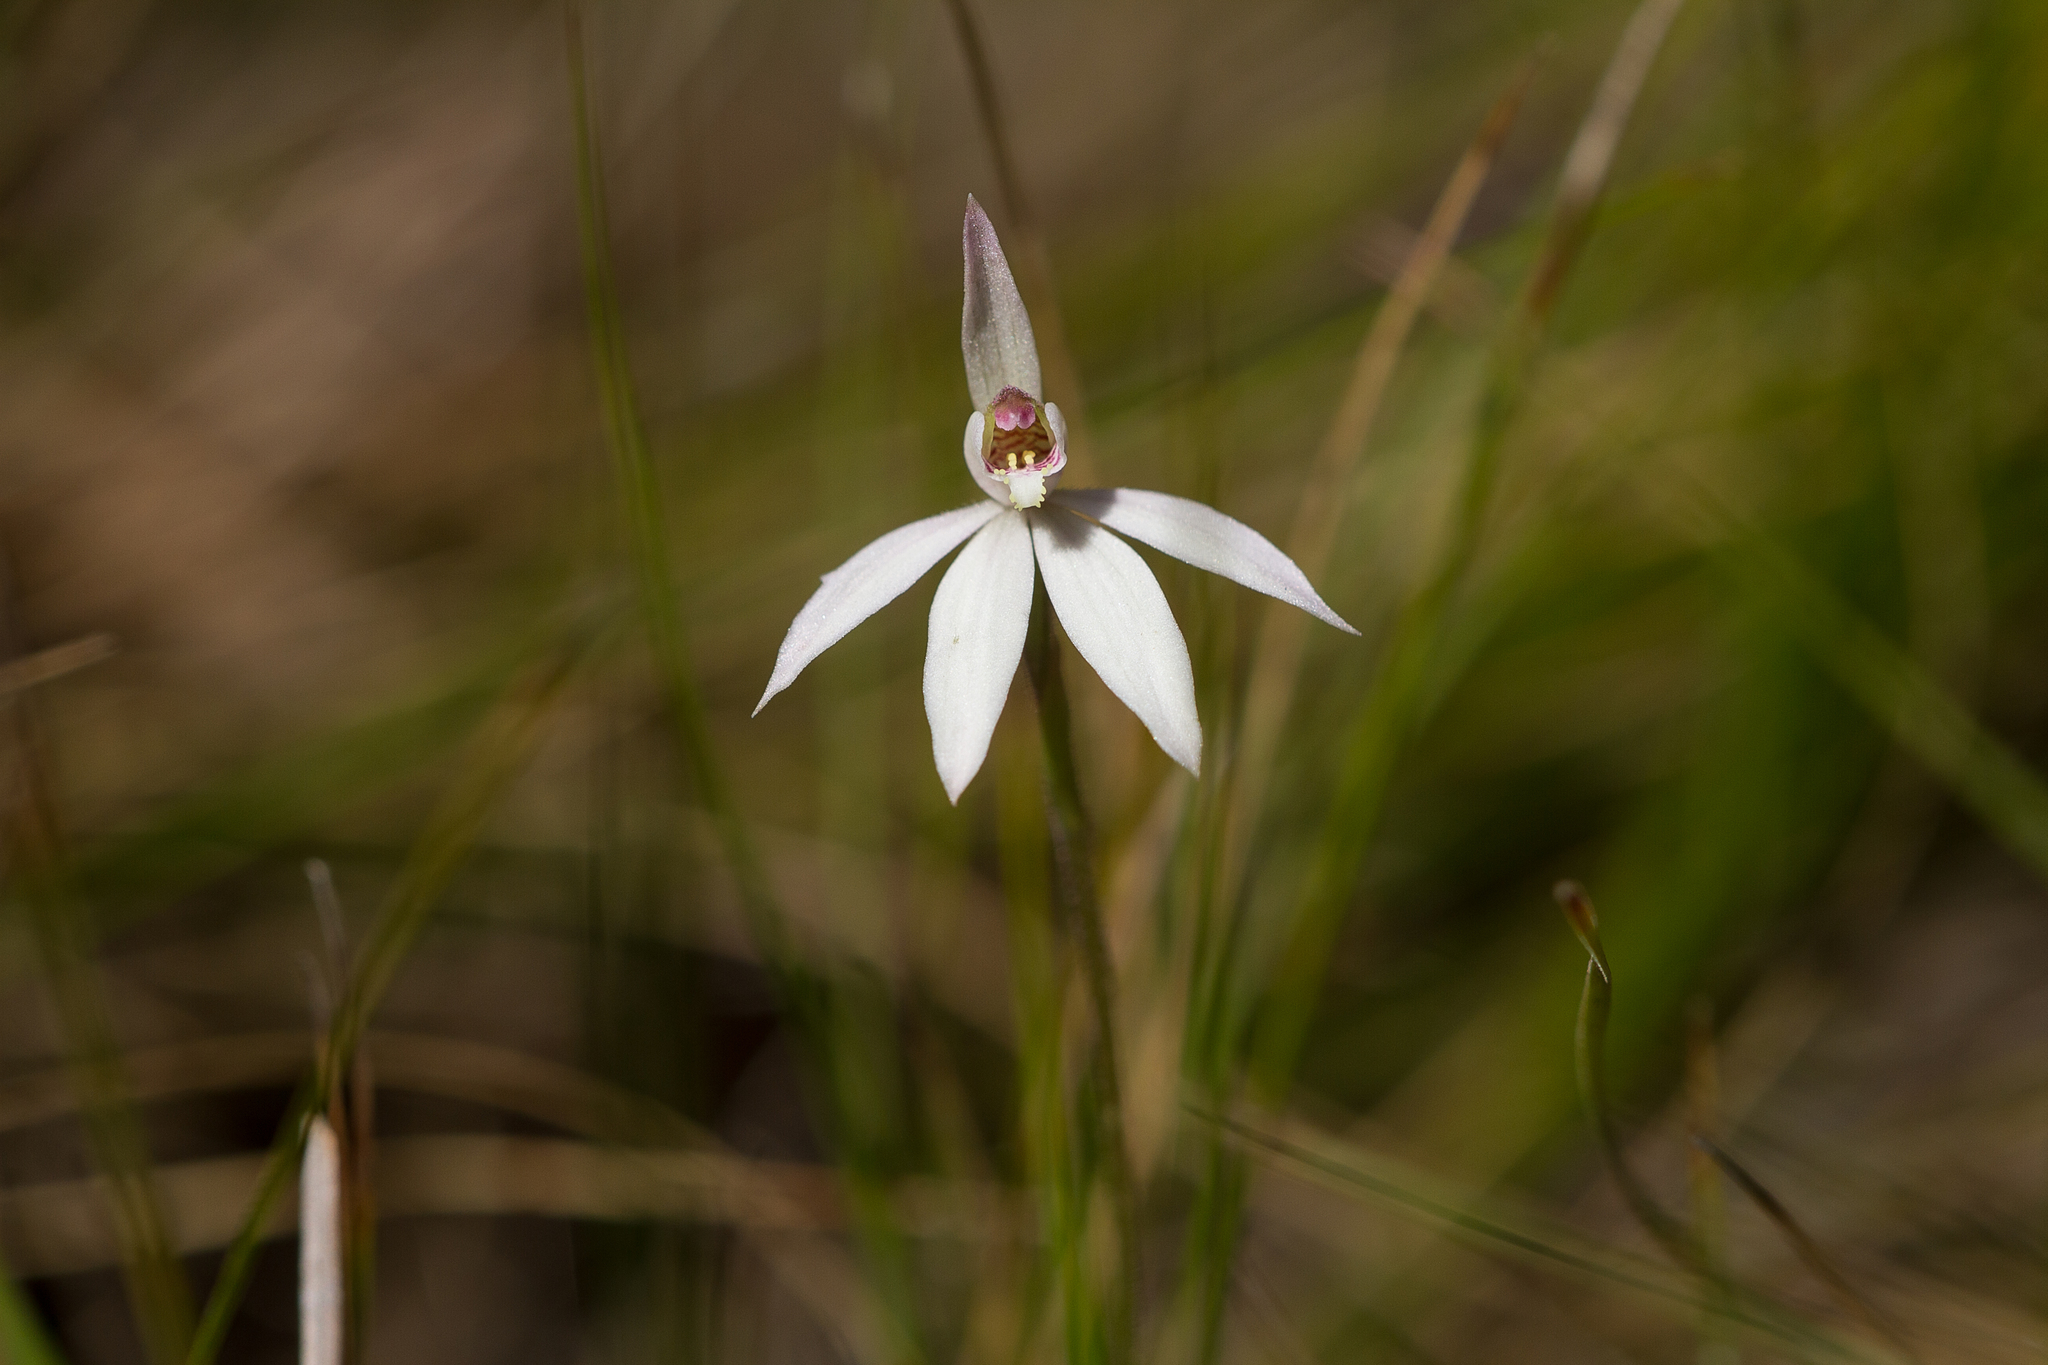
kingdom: Plantae
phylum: Tracheophyta
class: Liliopsida
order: Asparagales
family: Orchidaceae
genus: Caladenia
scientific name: Caladenia carnea
